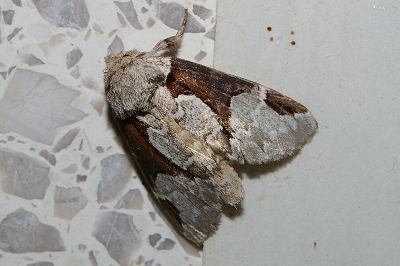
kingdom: Animalia
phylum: Arthropoda
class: Insecta
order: Lepidoptera
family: Notodontidae
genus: Wilemanus
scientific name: Wilemanus bidentatus
